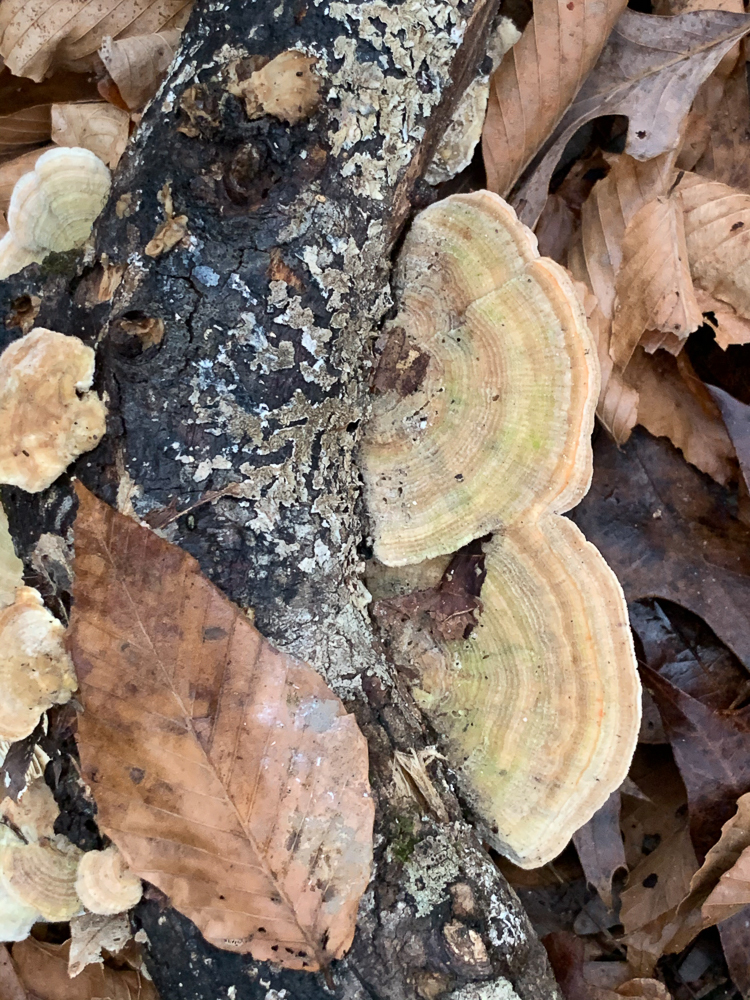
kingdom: Fungi
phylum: Basidiomycota
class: Agaricomycetes
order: Polyporales
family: Polyporaceae
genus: Lenzites
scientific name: Lenzites betulinus
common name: Birch mazegill
